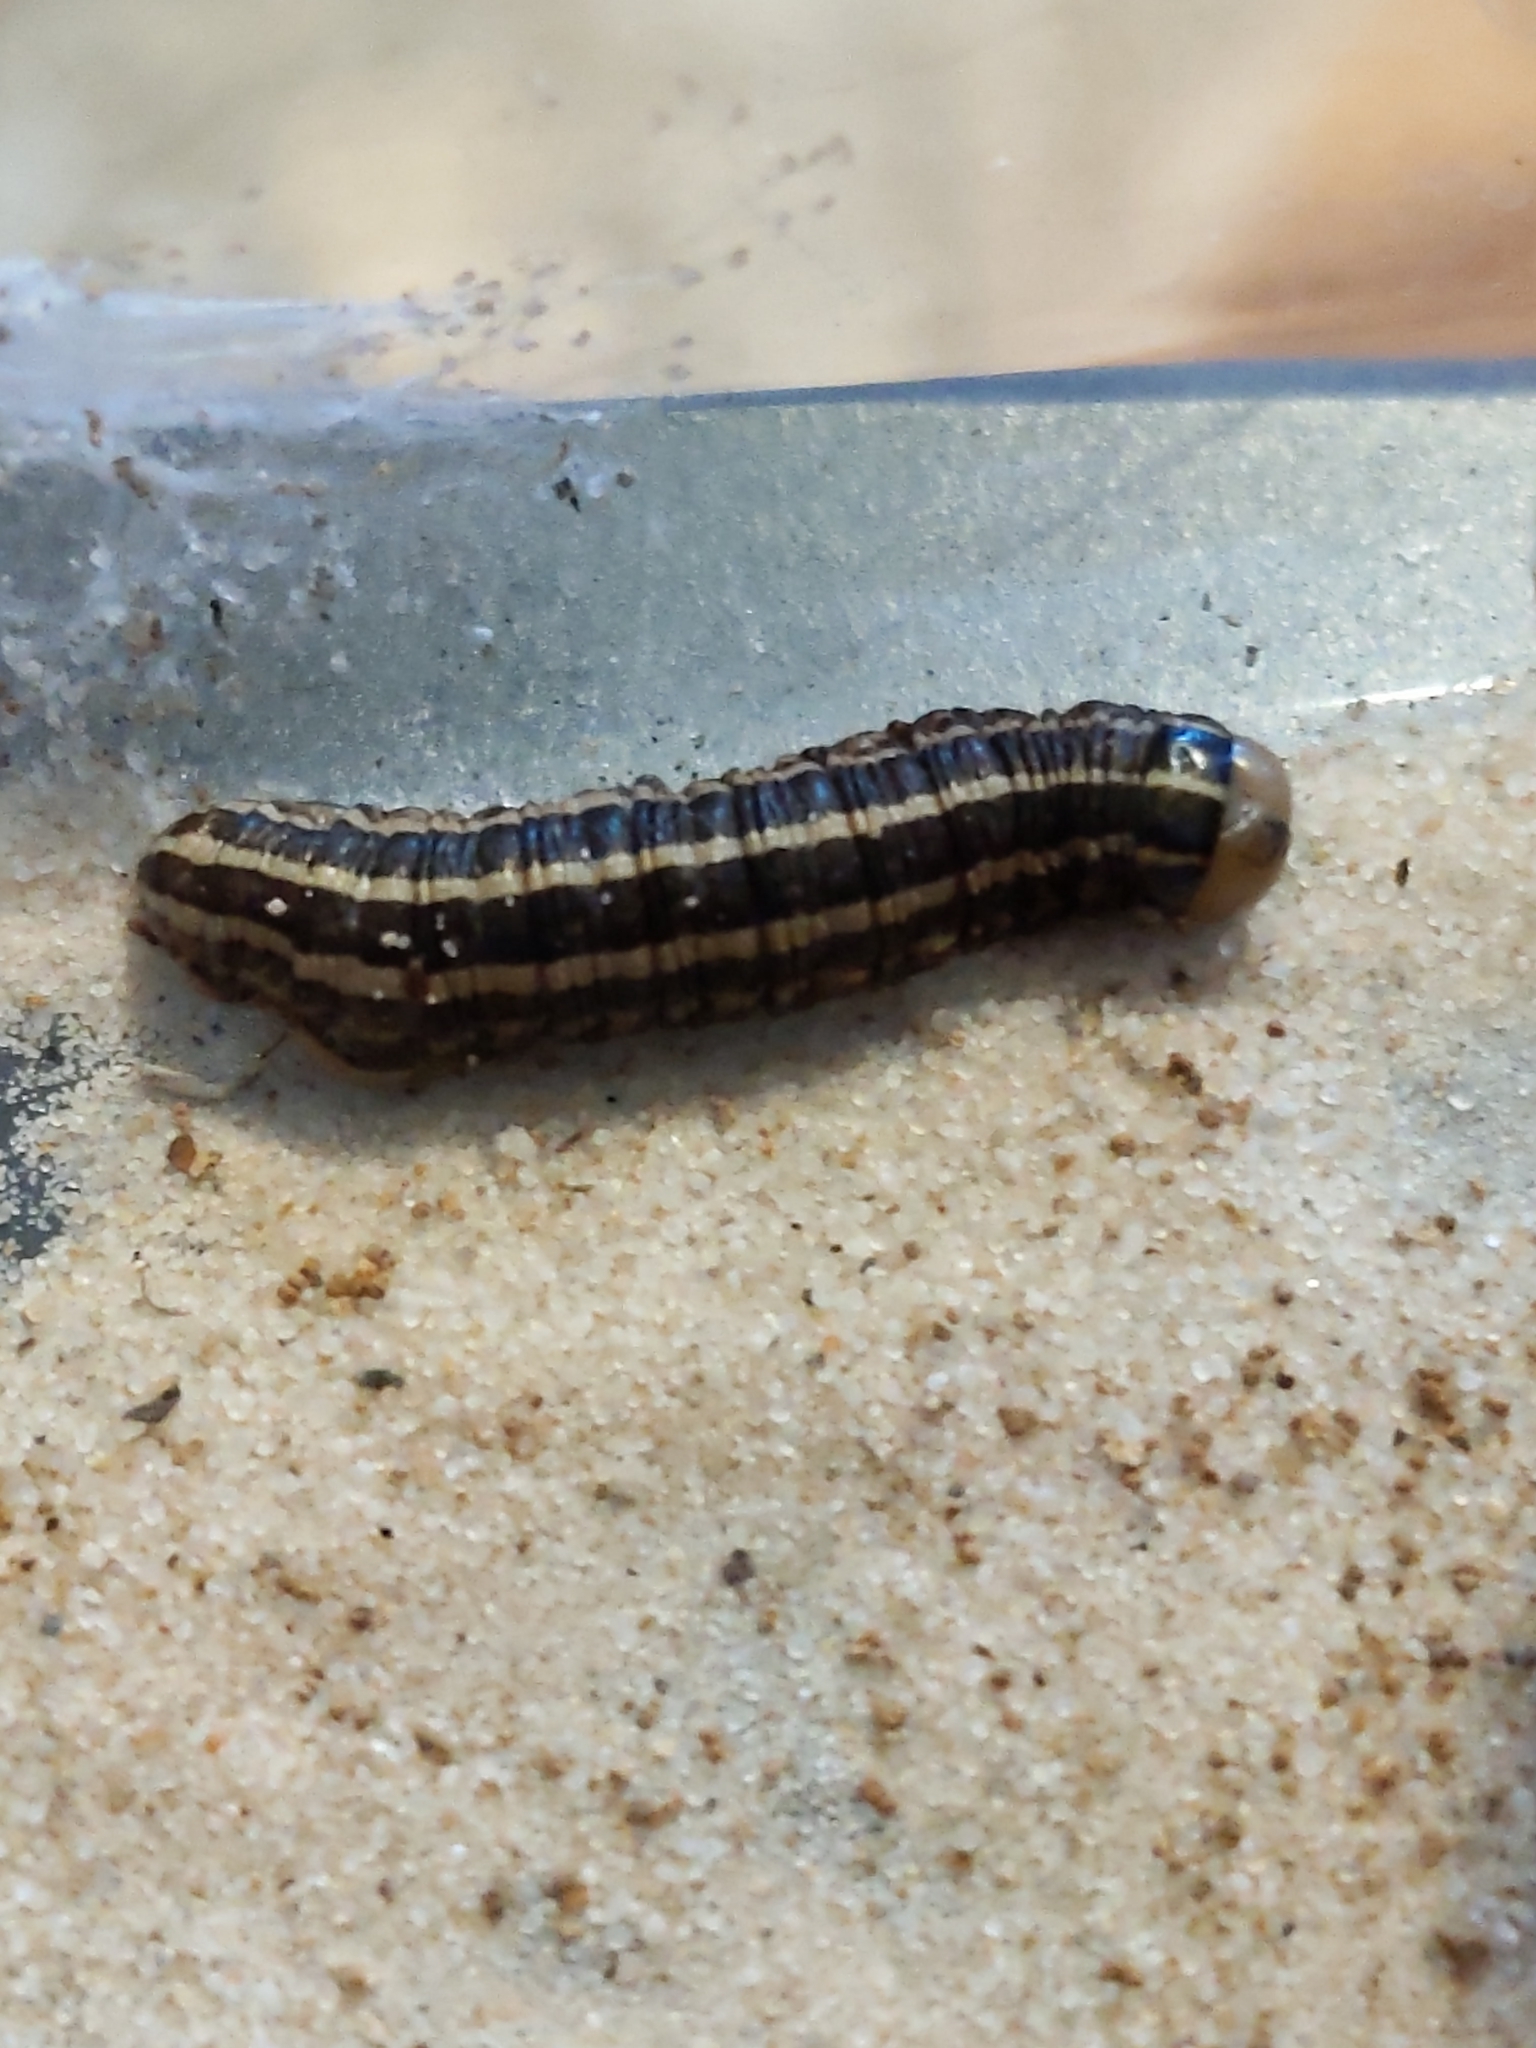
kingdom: Animalia
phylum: Arthropoda
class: Insecta
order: Lepidoptera
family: Noctuidae
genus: Nephelodes
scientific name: Nephelodes minians
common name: Bronzed cutworm
